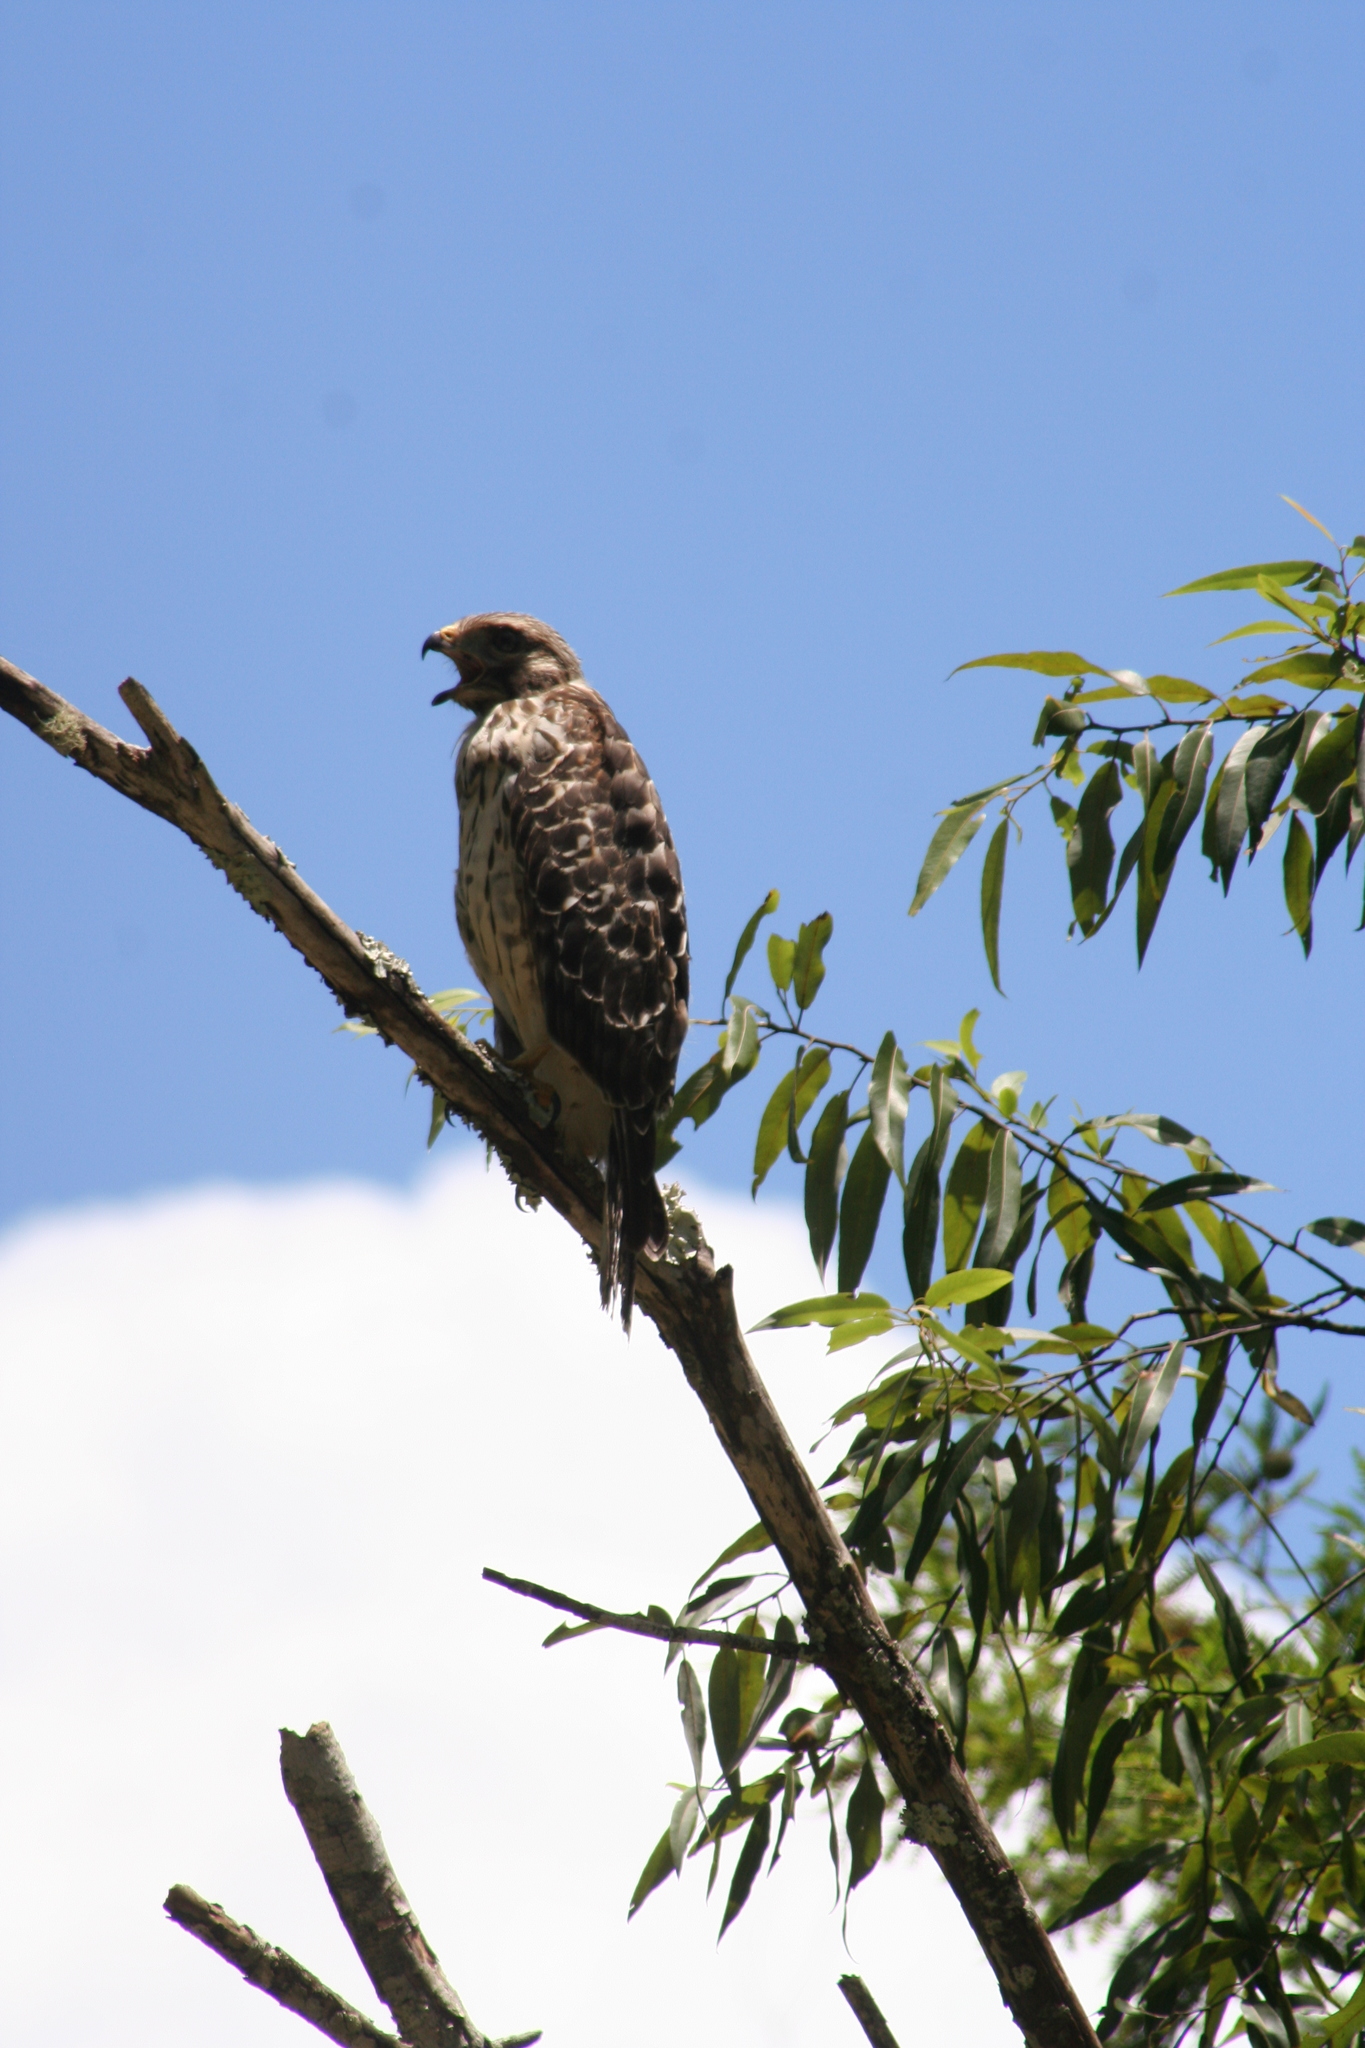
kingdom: Animalia
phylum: Chordata
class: Aves
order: Accipitriformes
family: Accipitridae
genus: Buteo
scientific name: Buteo lineatus
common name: Red-shouldered hawk
